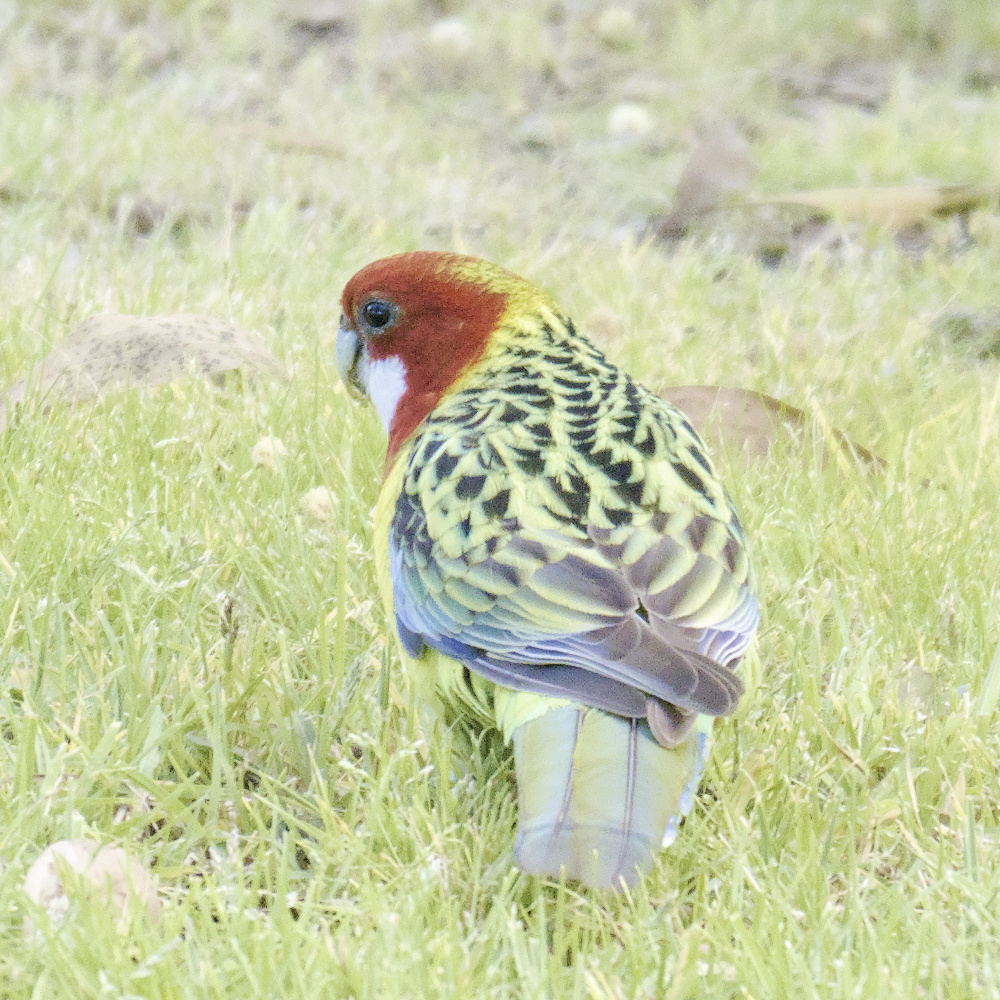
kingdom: Animalia
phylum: Chordata
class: Aves
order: Psittaciformes
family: Psittacidae
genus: Platycercus
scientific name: Platycercus eximius
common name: Eastern rosella
